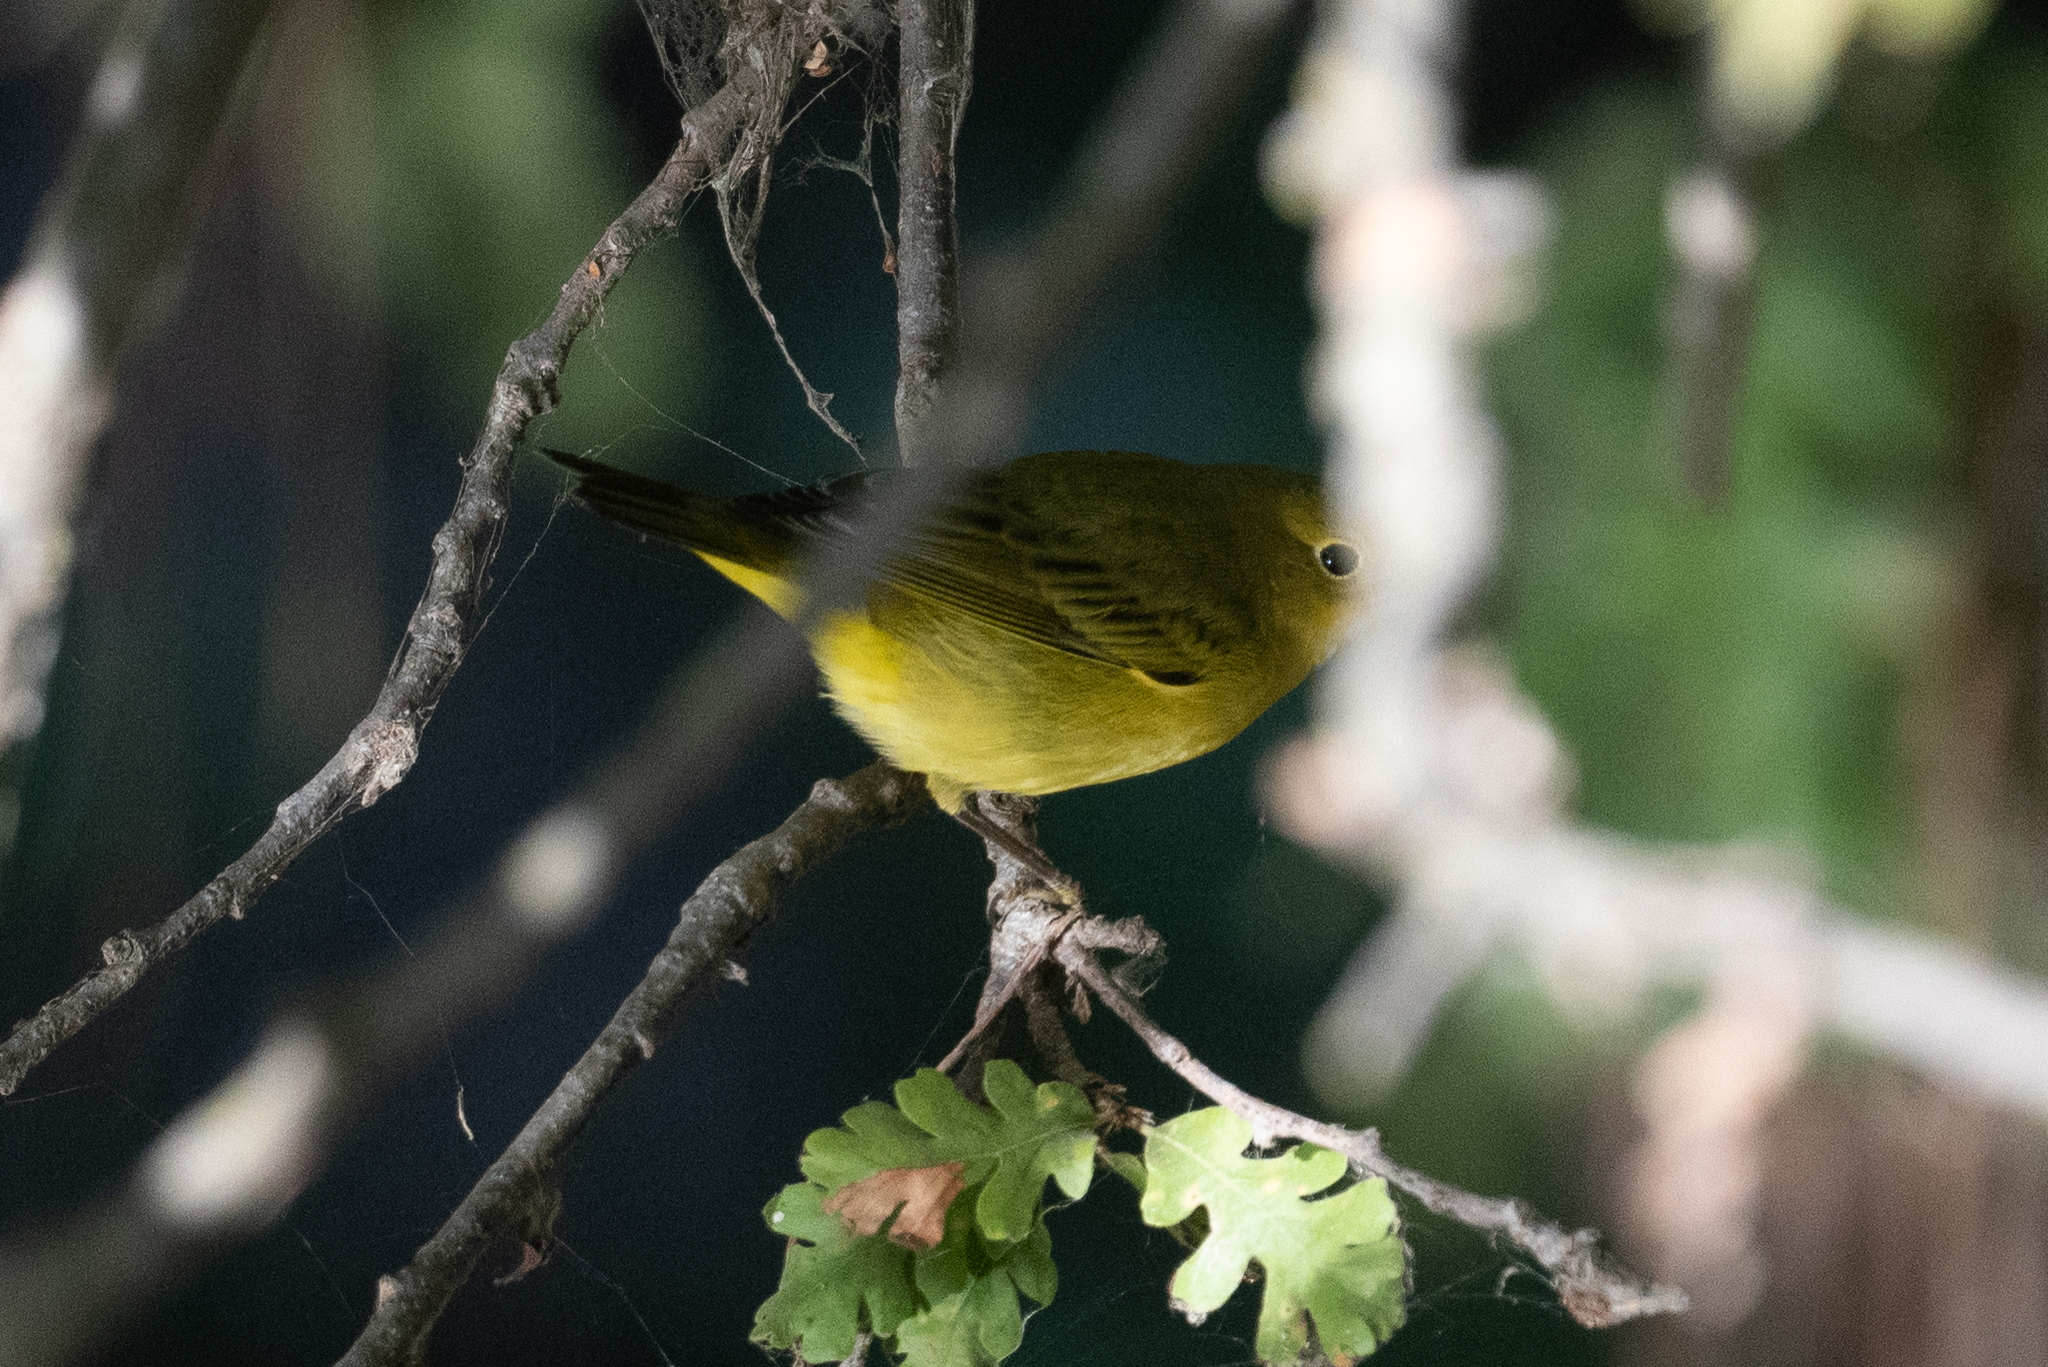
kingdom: Animalia
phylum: Chordata
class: Aves
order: Passeriformes
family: Parulidae
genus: Setophaga
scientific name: Setophaga petechia
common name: Yellow warbler
